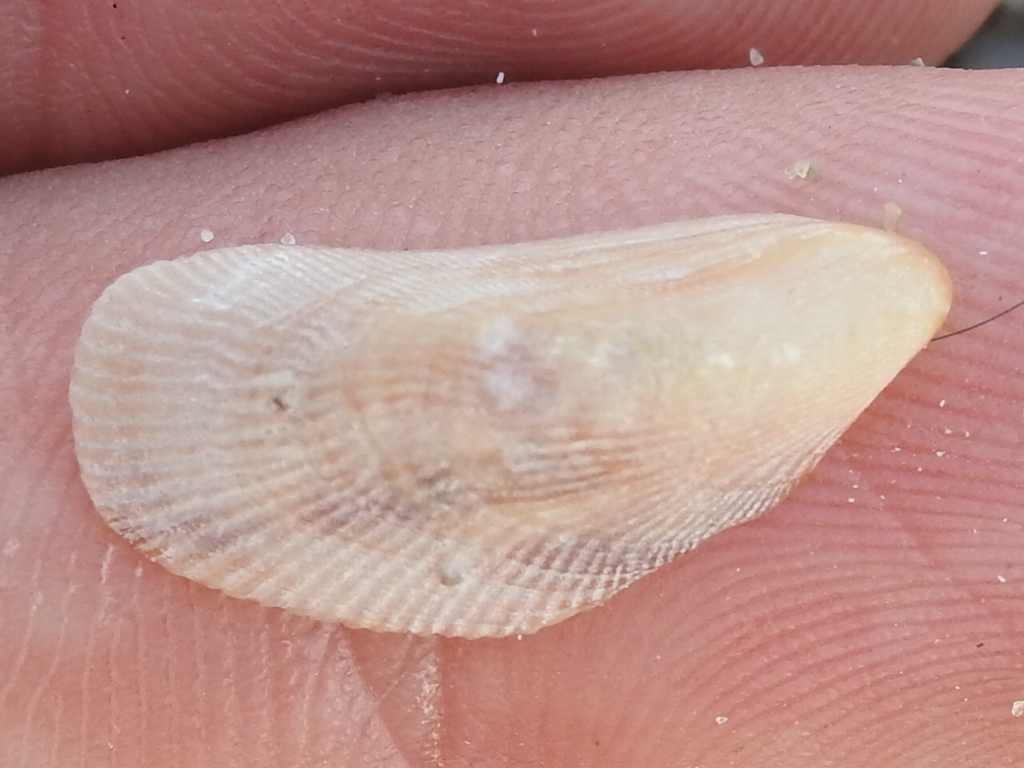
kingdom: Animalia
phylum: Mollusca
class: Bivalvia
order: Mytilida
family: Mytilidae
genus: Brachidontes
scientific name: Brachidontes modiolus
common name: Yellow mussel
